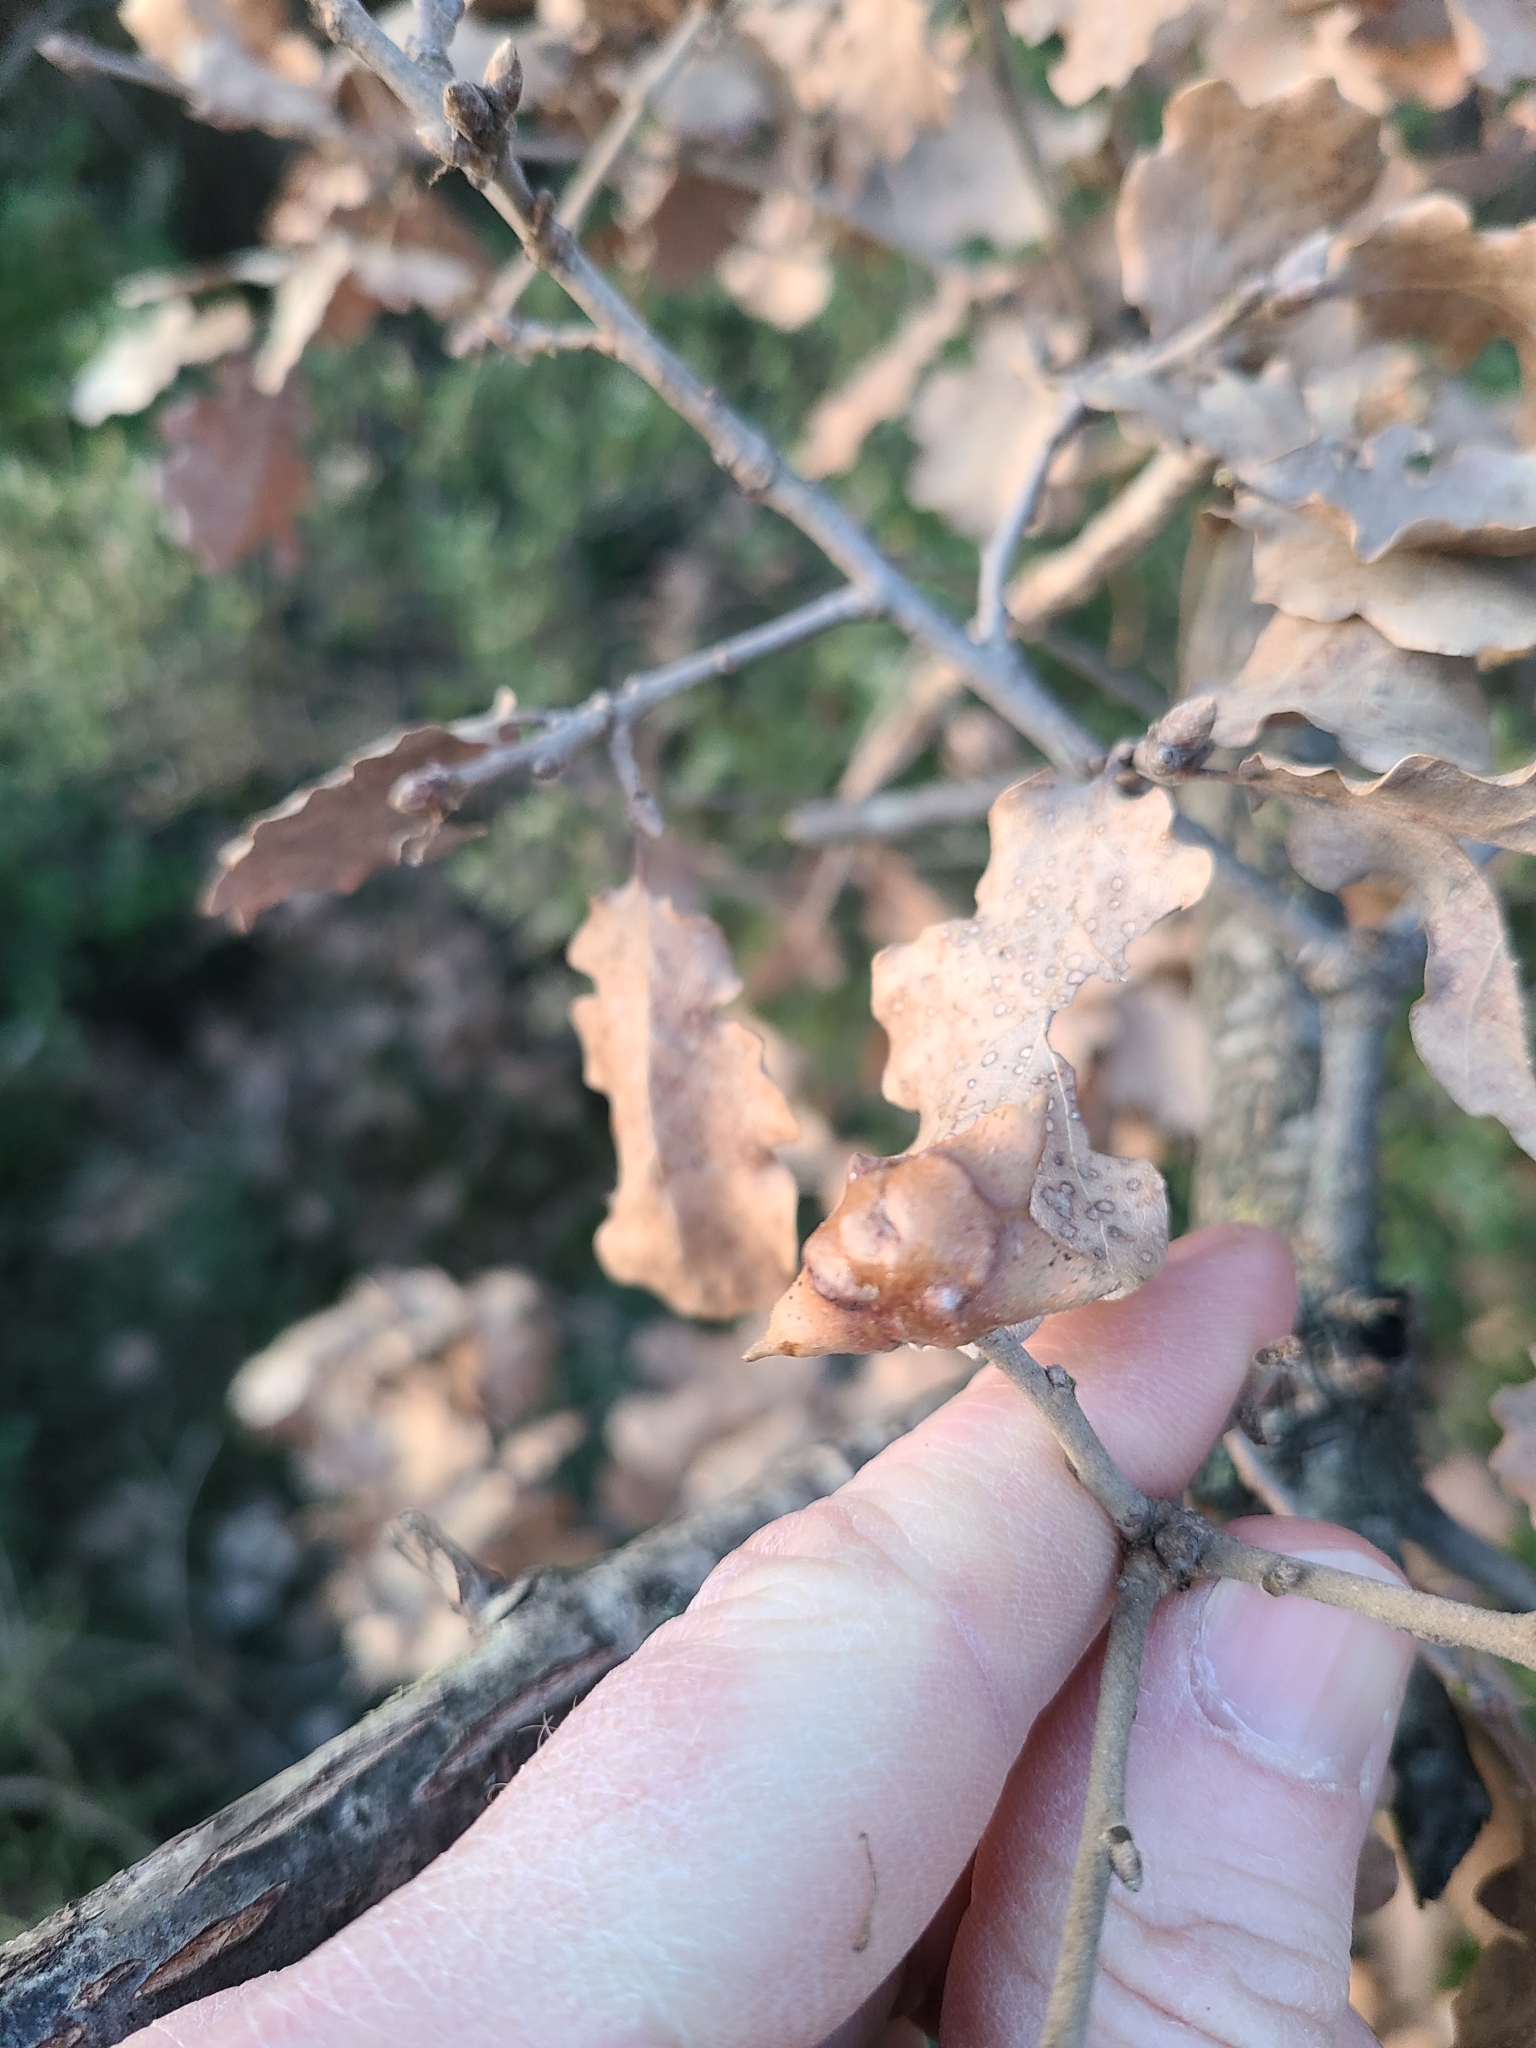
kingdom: Animalia
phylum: Arthropoda
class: Insecta
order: Hymenoptera
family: Cynipidae
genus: Andricus
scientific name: Andricus coronatus
